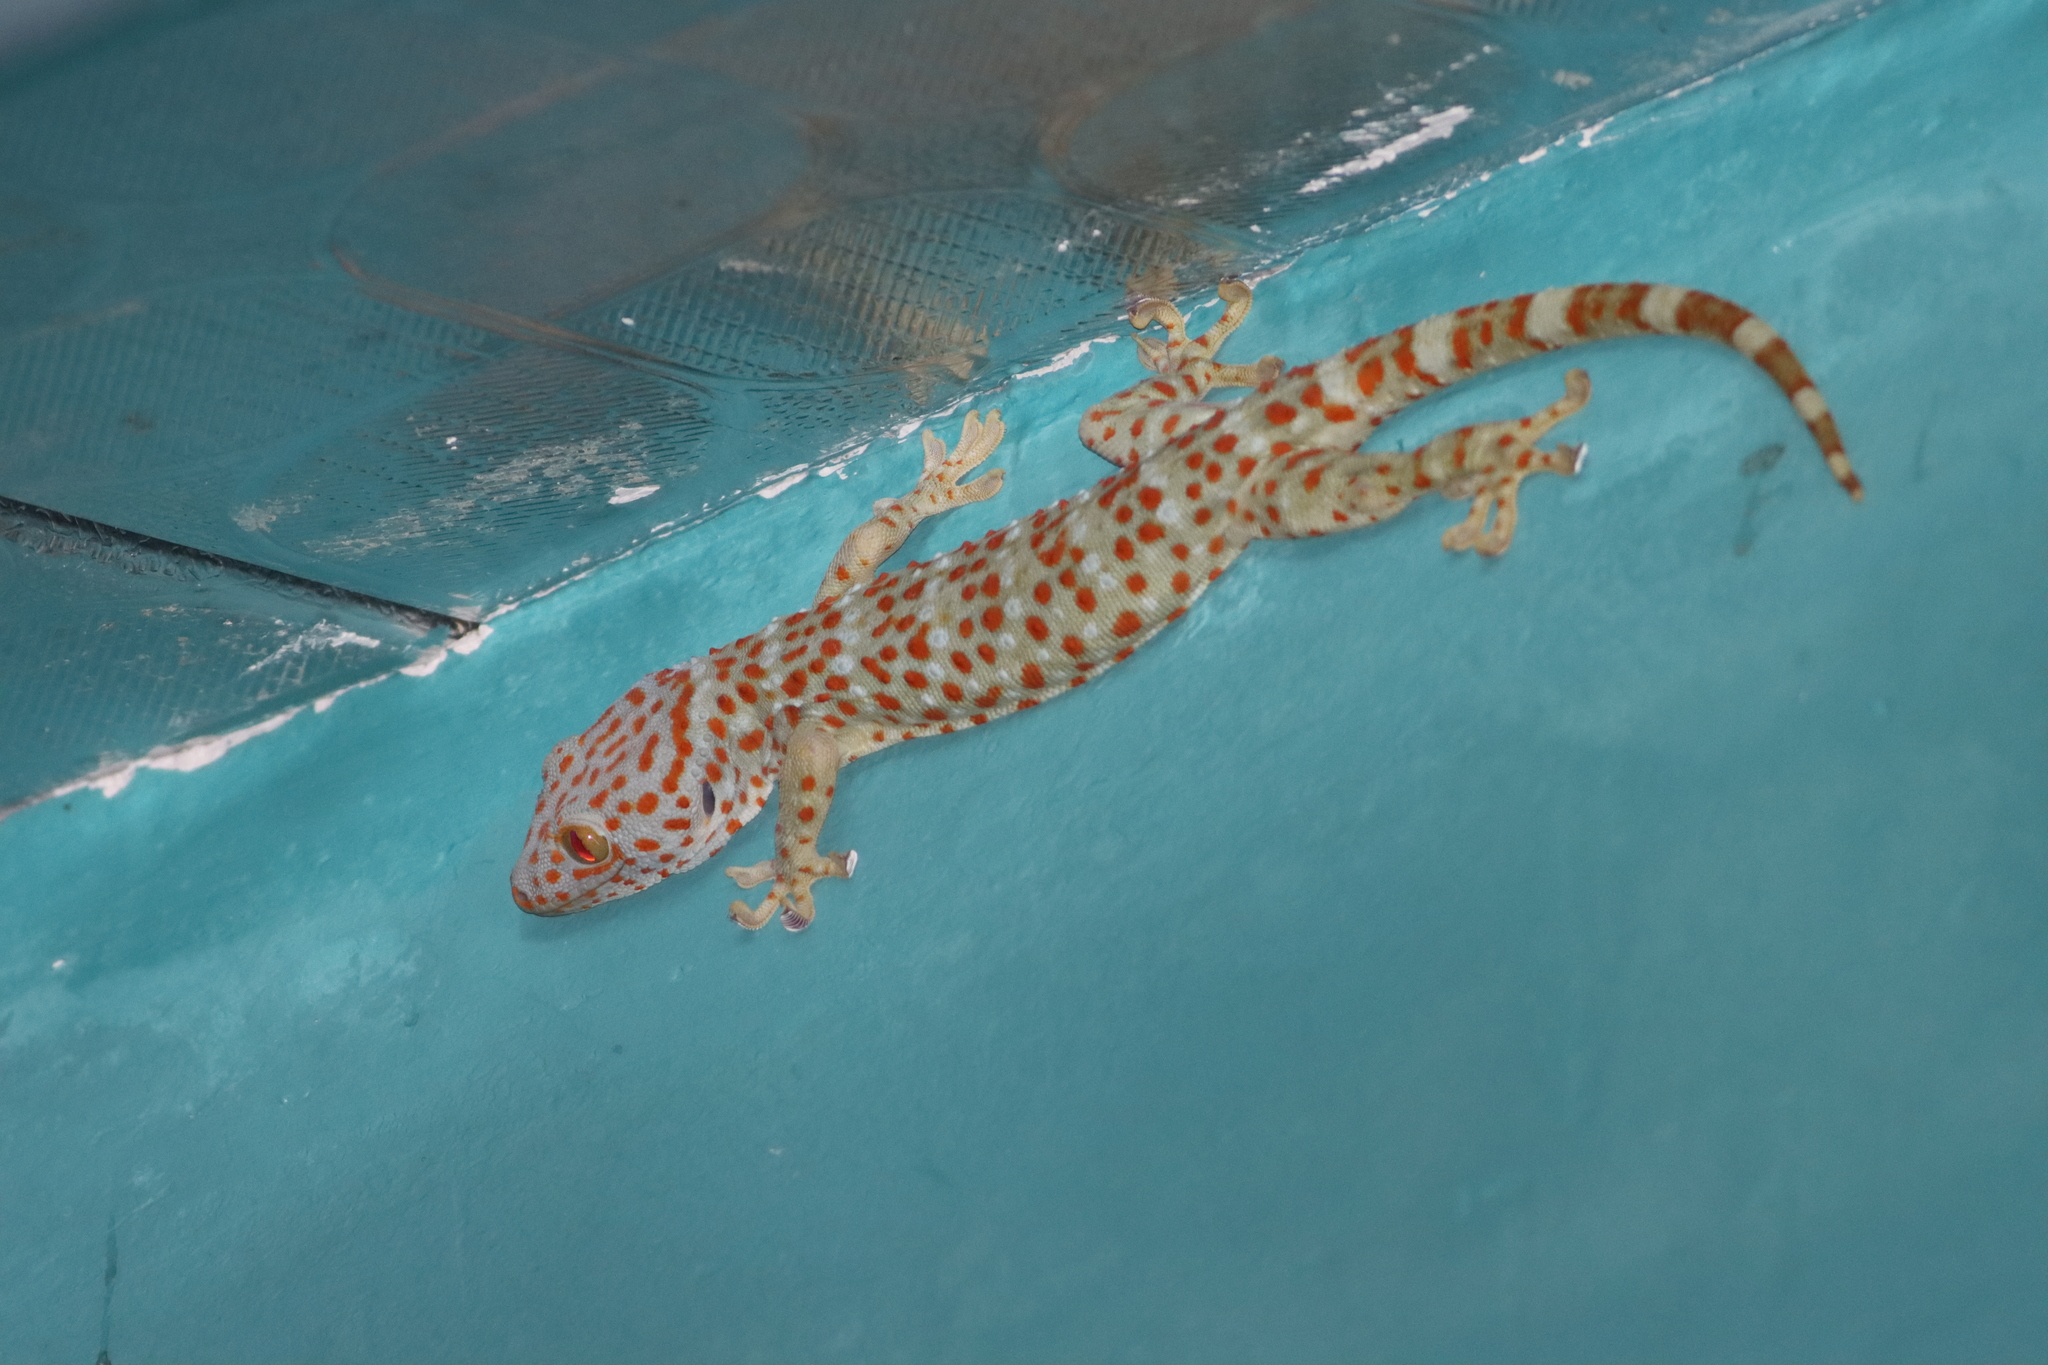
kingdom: Animalia
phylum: Chordata
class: Squamata
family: Gekkonidae
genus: Gekko
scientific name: Gekko gecko
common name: Tokay gecko
